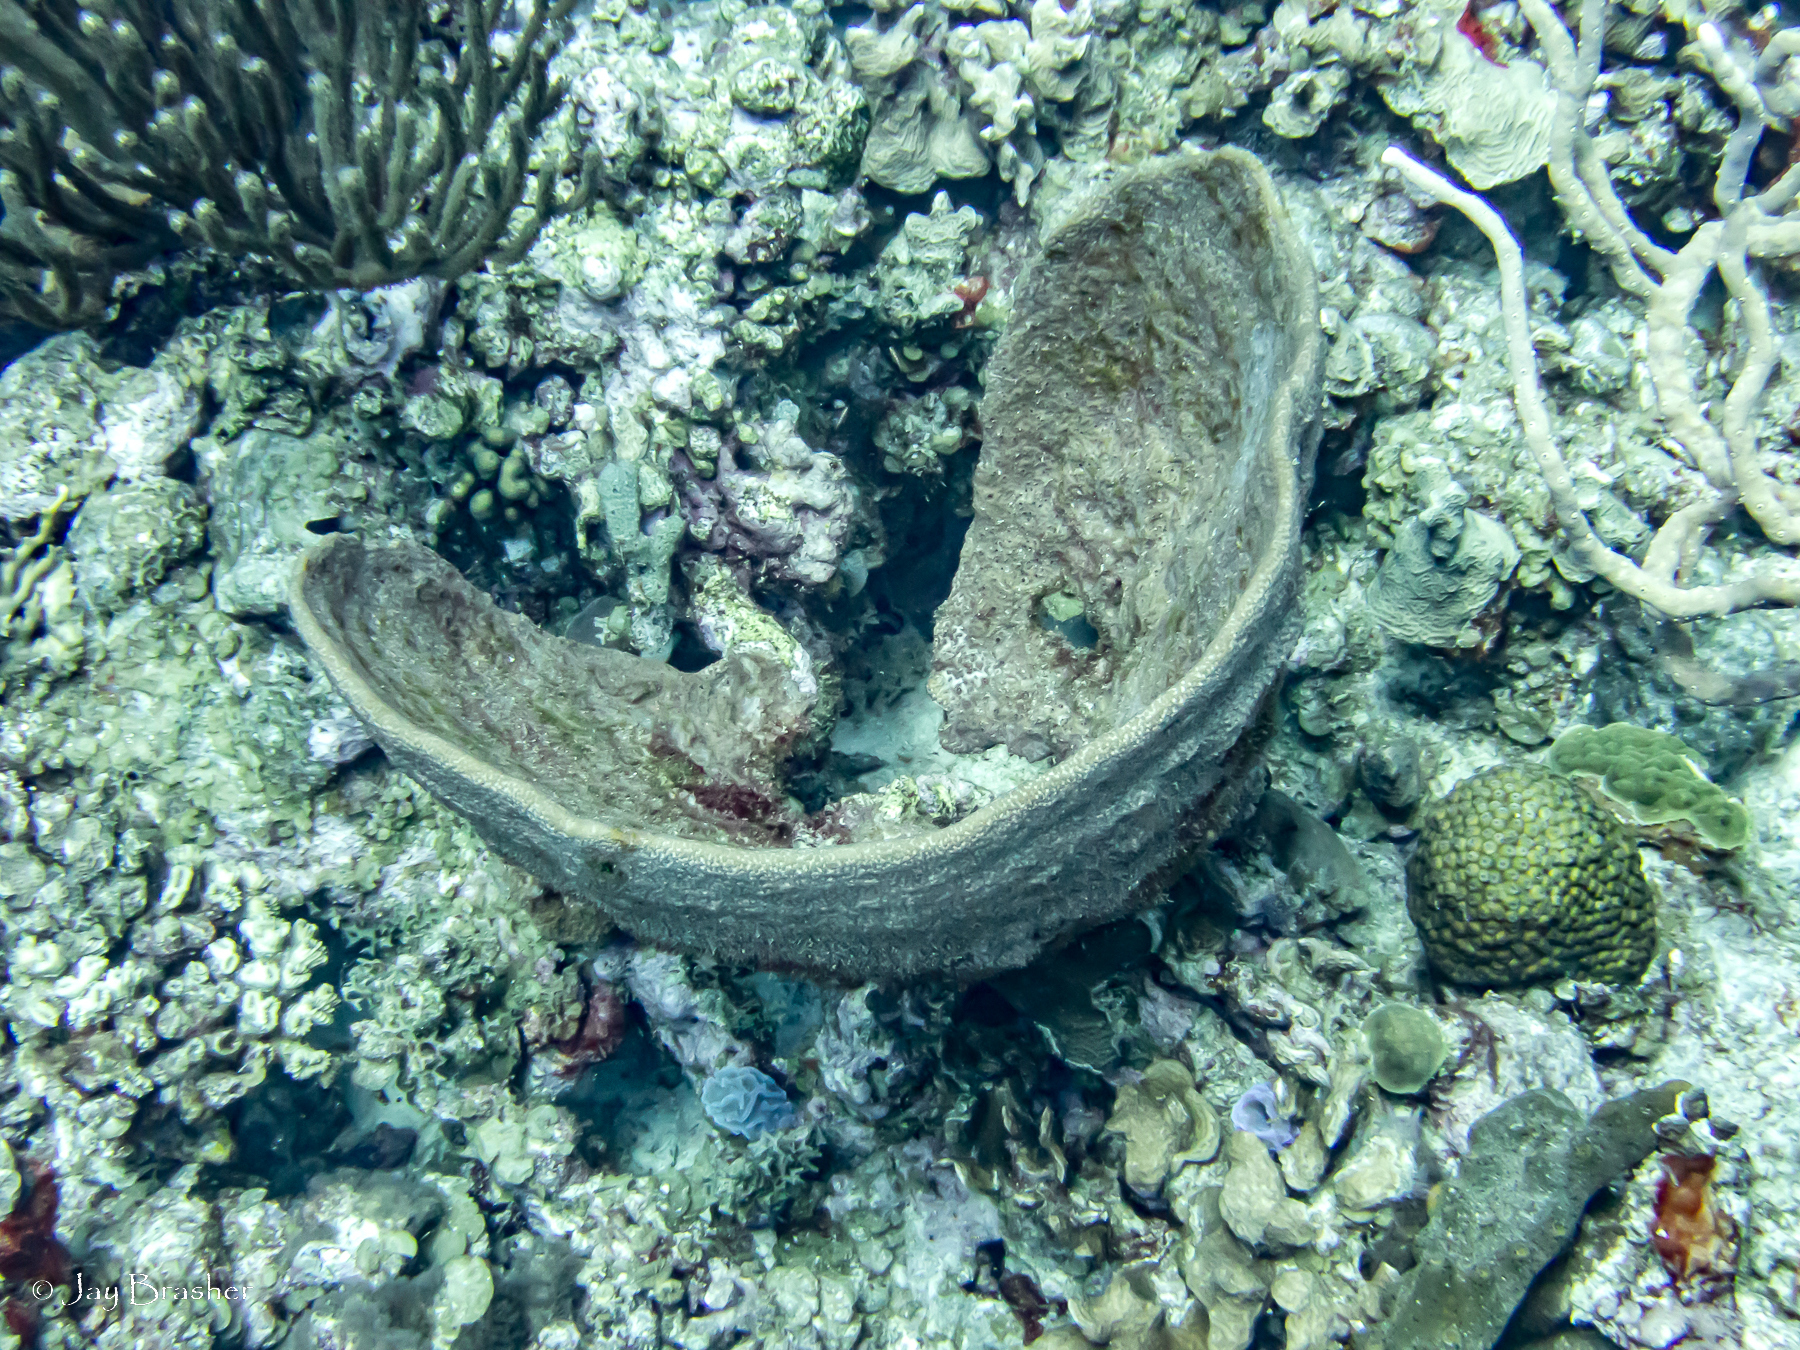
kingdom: Animalia
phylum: Porifera
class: Demospongiae
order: Dictyoceratida
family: Irciniidae
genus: Ircinia
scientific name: Ircinia campana
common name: Vase sponge
